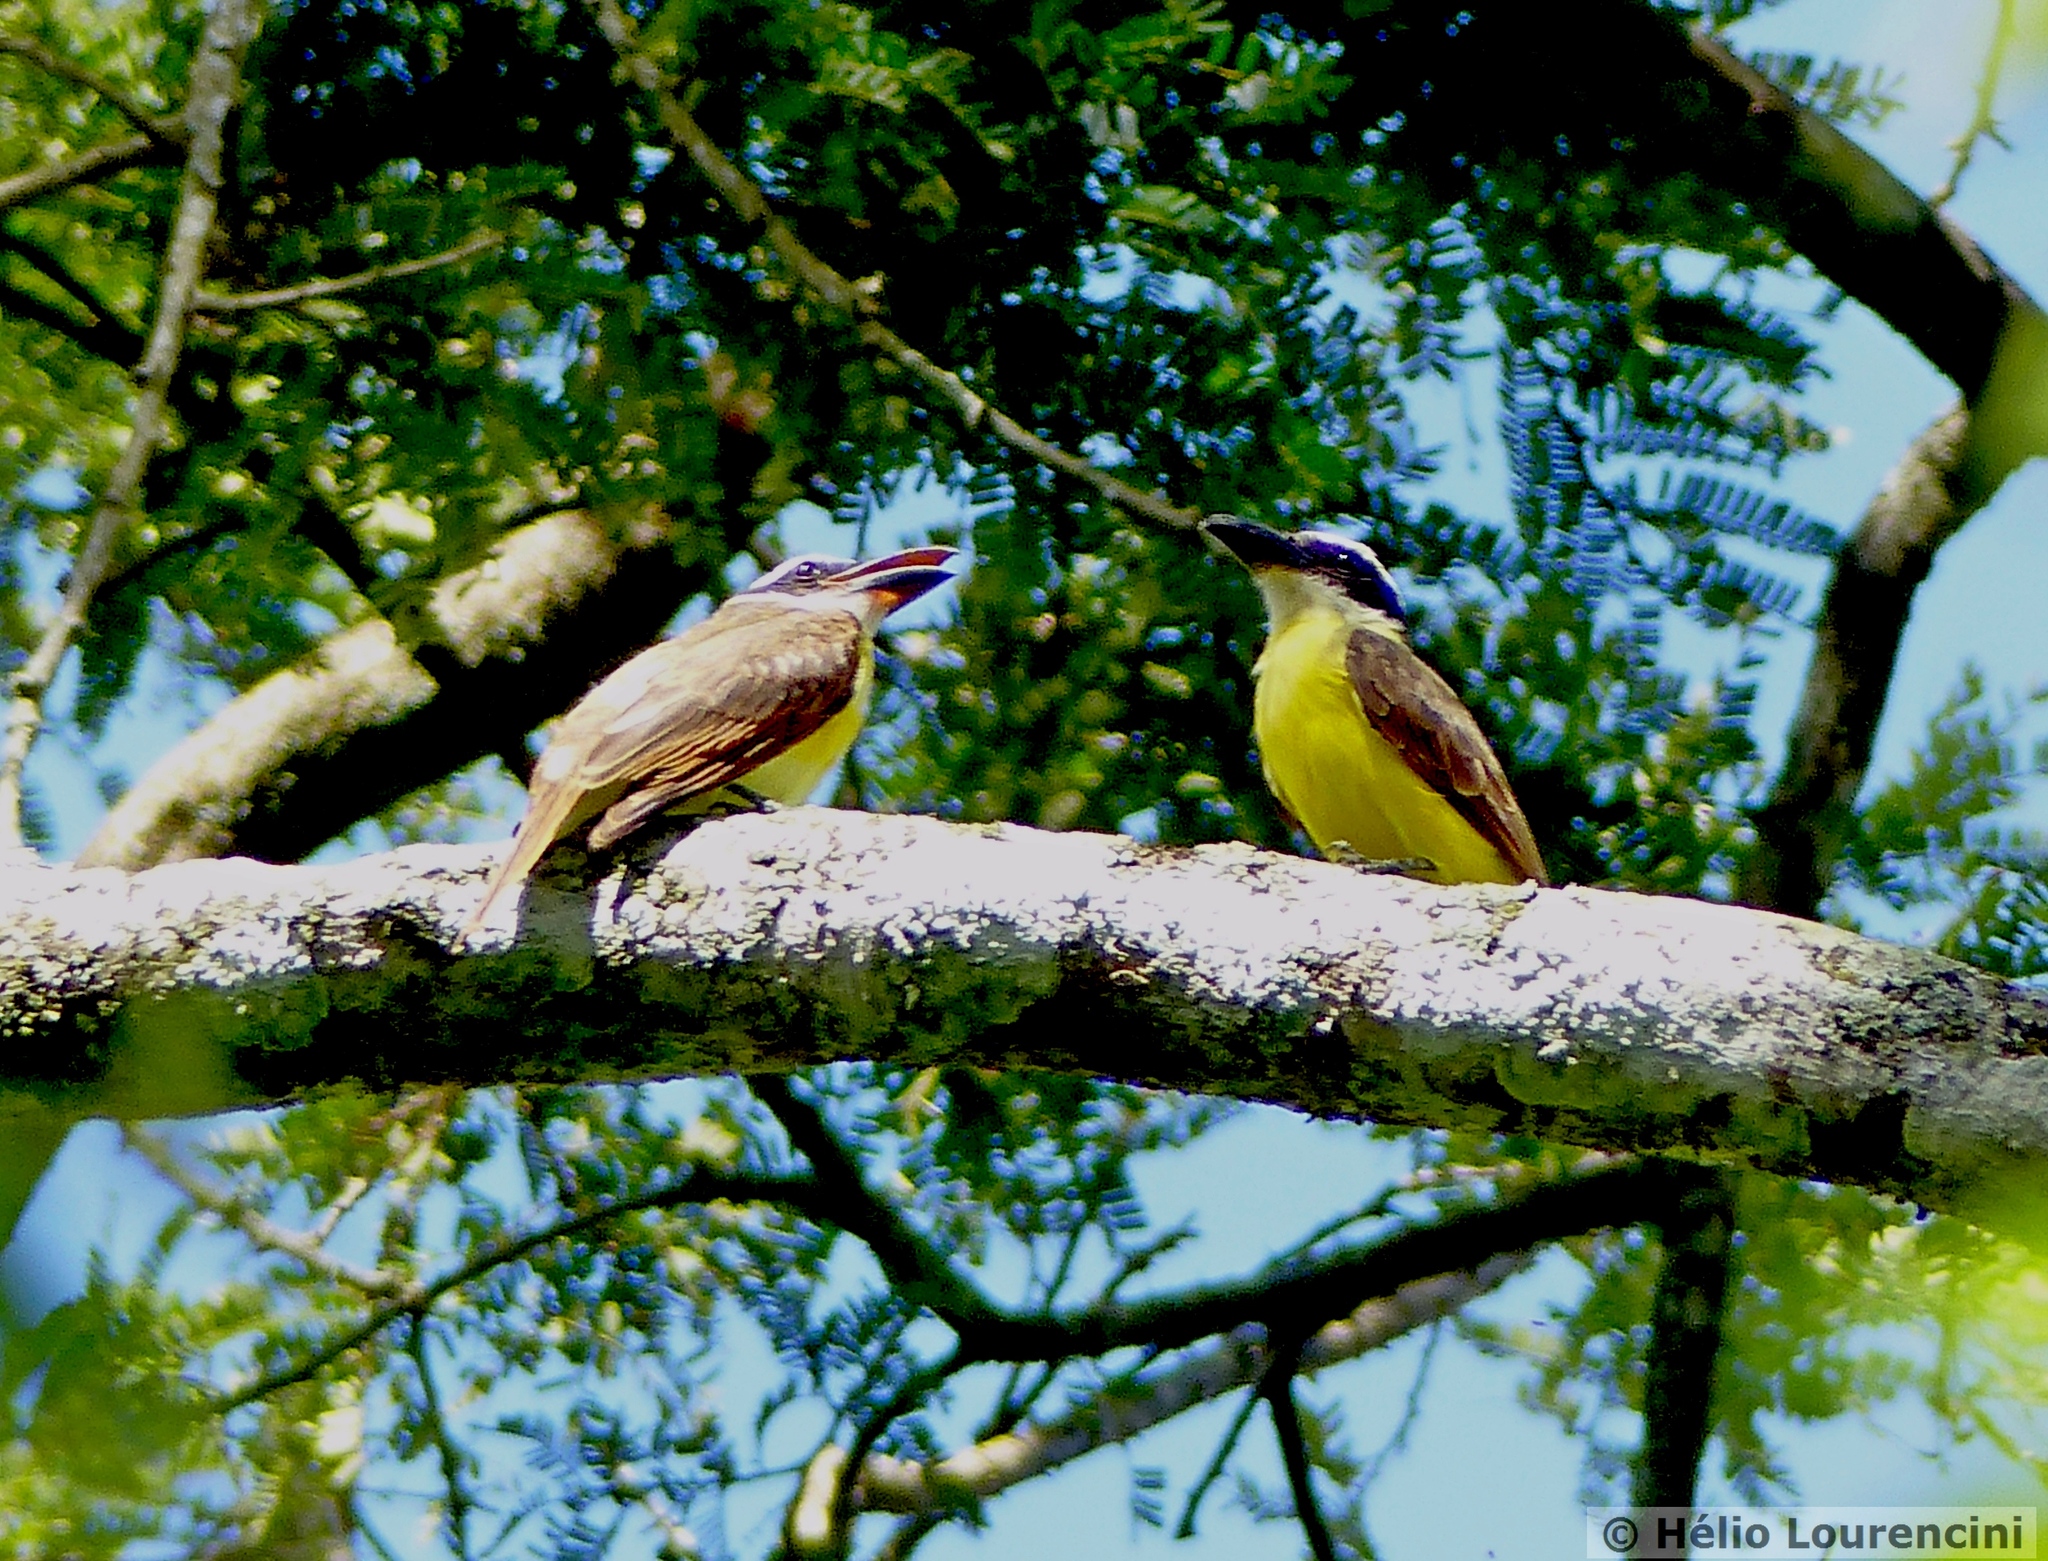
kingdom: Animalia
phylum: Chordata
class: Aves
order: Passeriformes
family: Tyrannidae
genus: Megarynchus
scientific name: Megarynchus pitangua
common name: Boat-billed flycatcher
